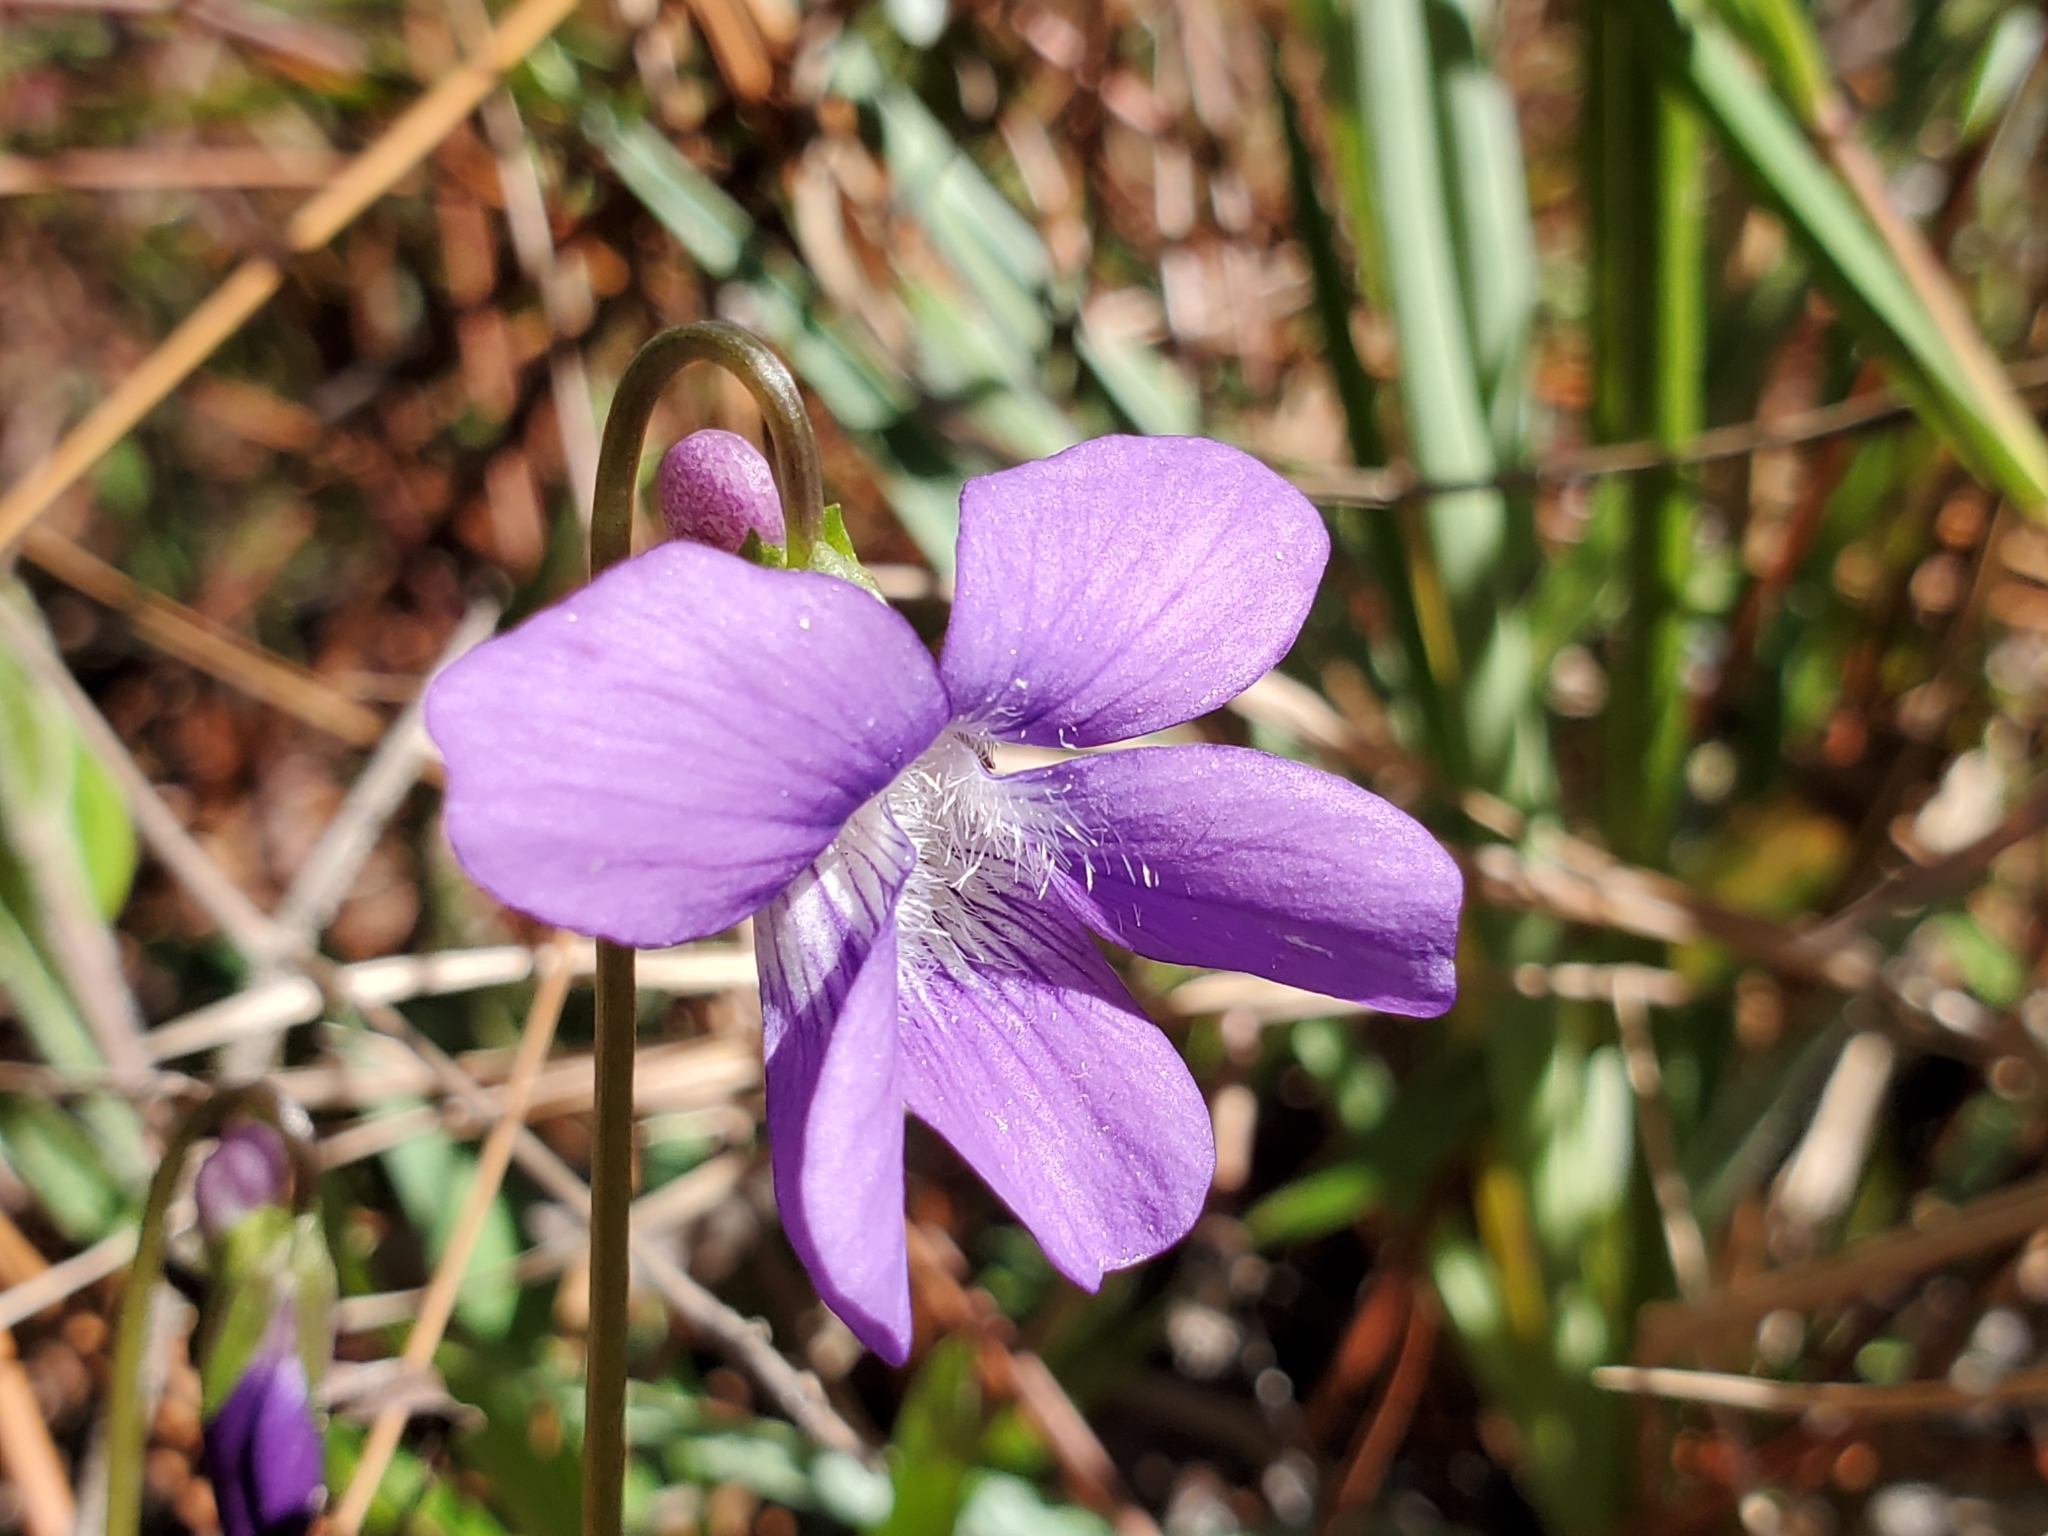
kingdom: Plantae
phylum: Tracheophyta
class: Magnoliopsida
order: Malpighiales
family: Violaceae
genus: Viola
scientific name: Viola septemloba
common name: Southern coast violet
